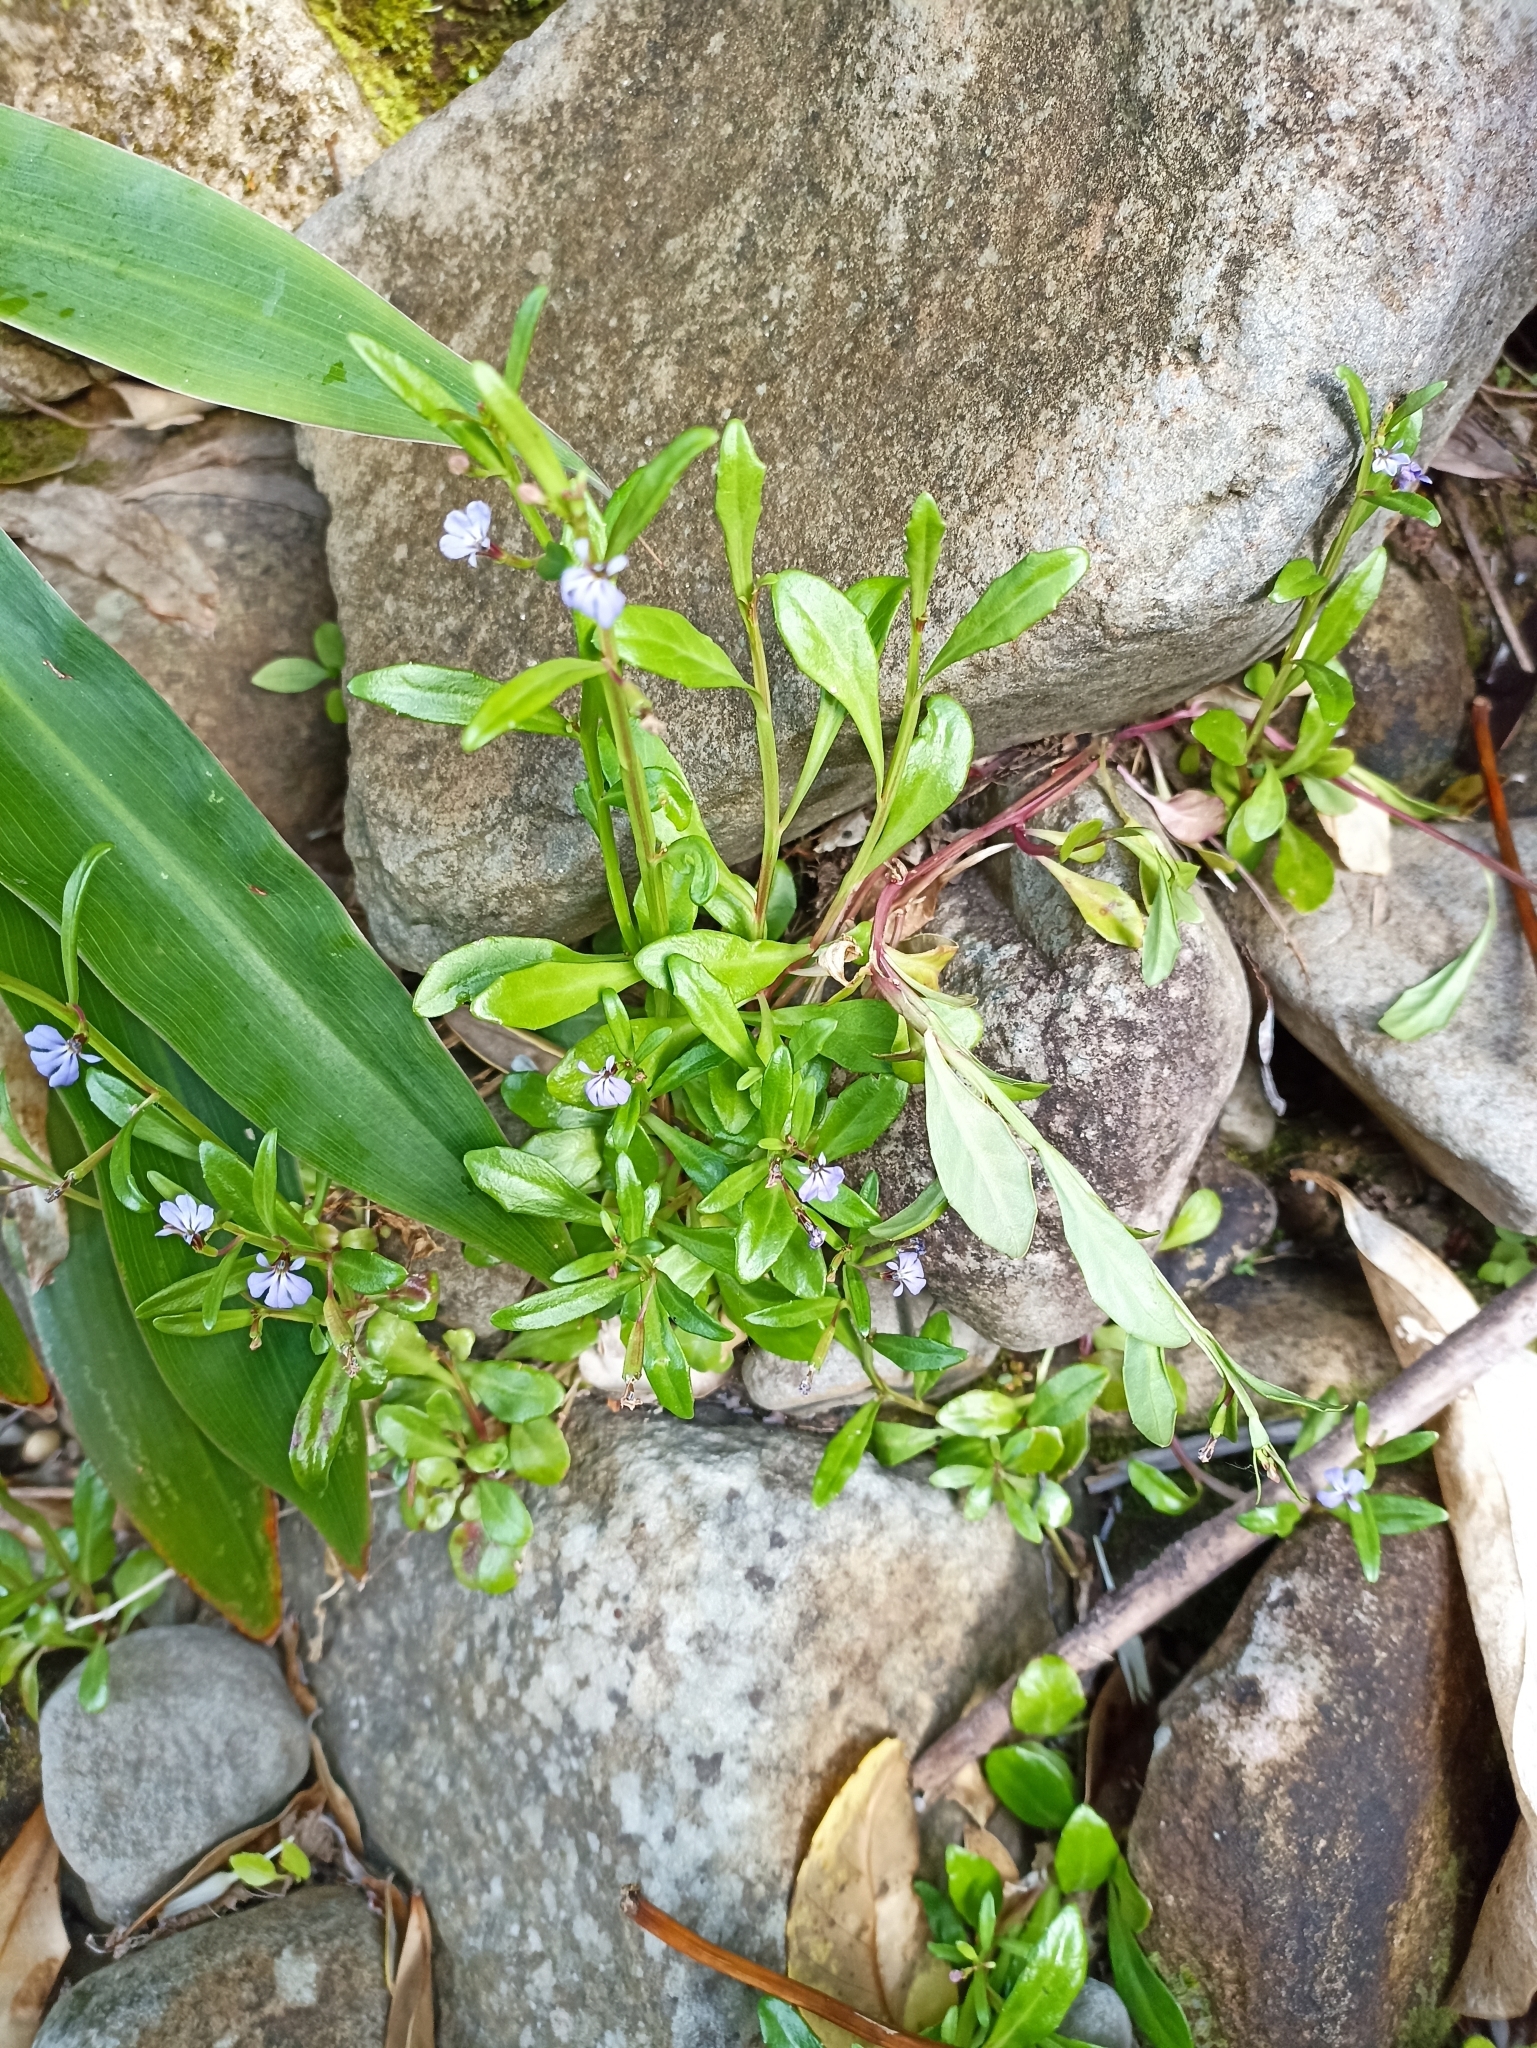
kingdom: Plantae
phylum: Tracheophyta
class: Magnoliopsida
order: Asterales
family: Campanulaceae
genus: Lobelia
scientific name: Lobelia anceps
